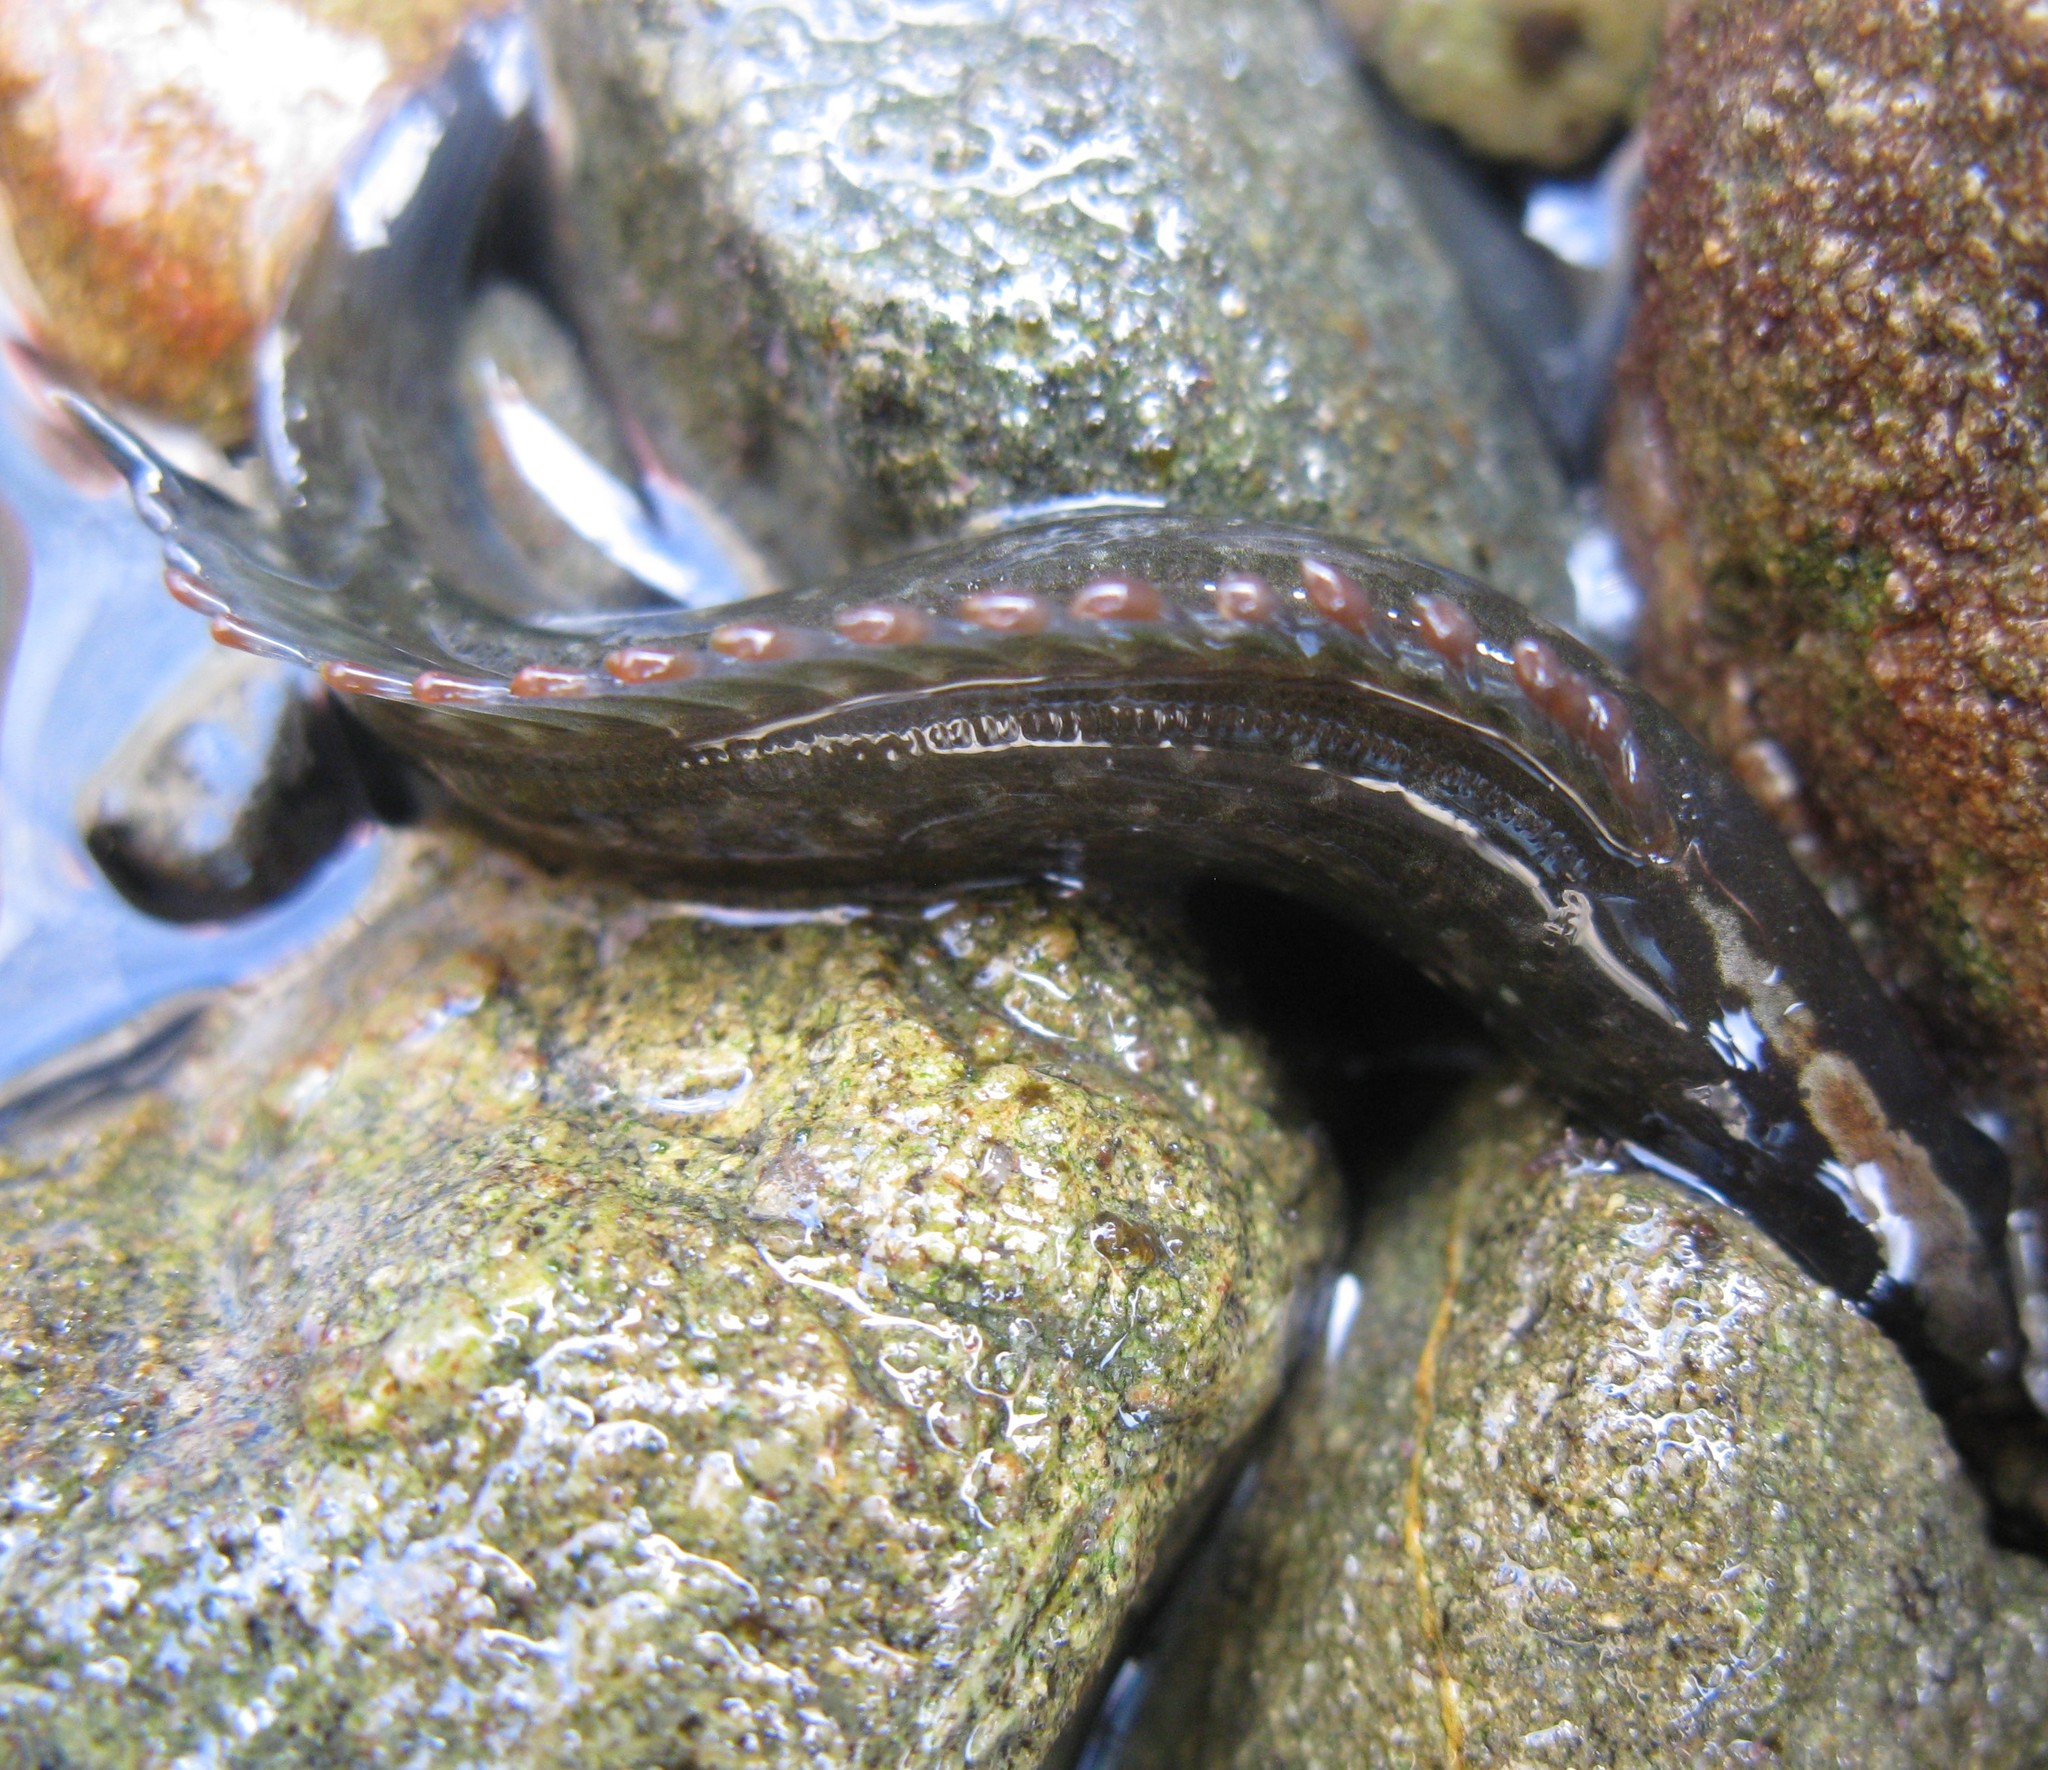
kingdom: Animalia
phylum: Chordata
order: Perciformes
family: Plesiopidae
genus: Acanthoclinus
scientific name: Acanthoclinus fuscus
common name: Olive rockfish
